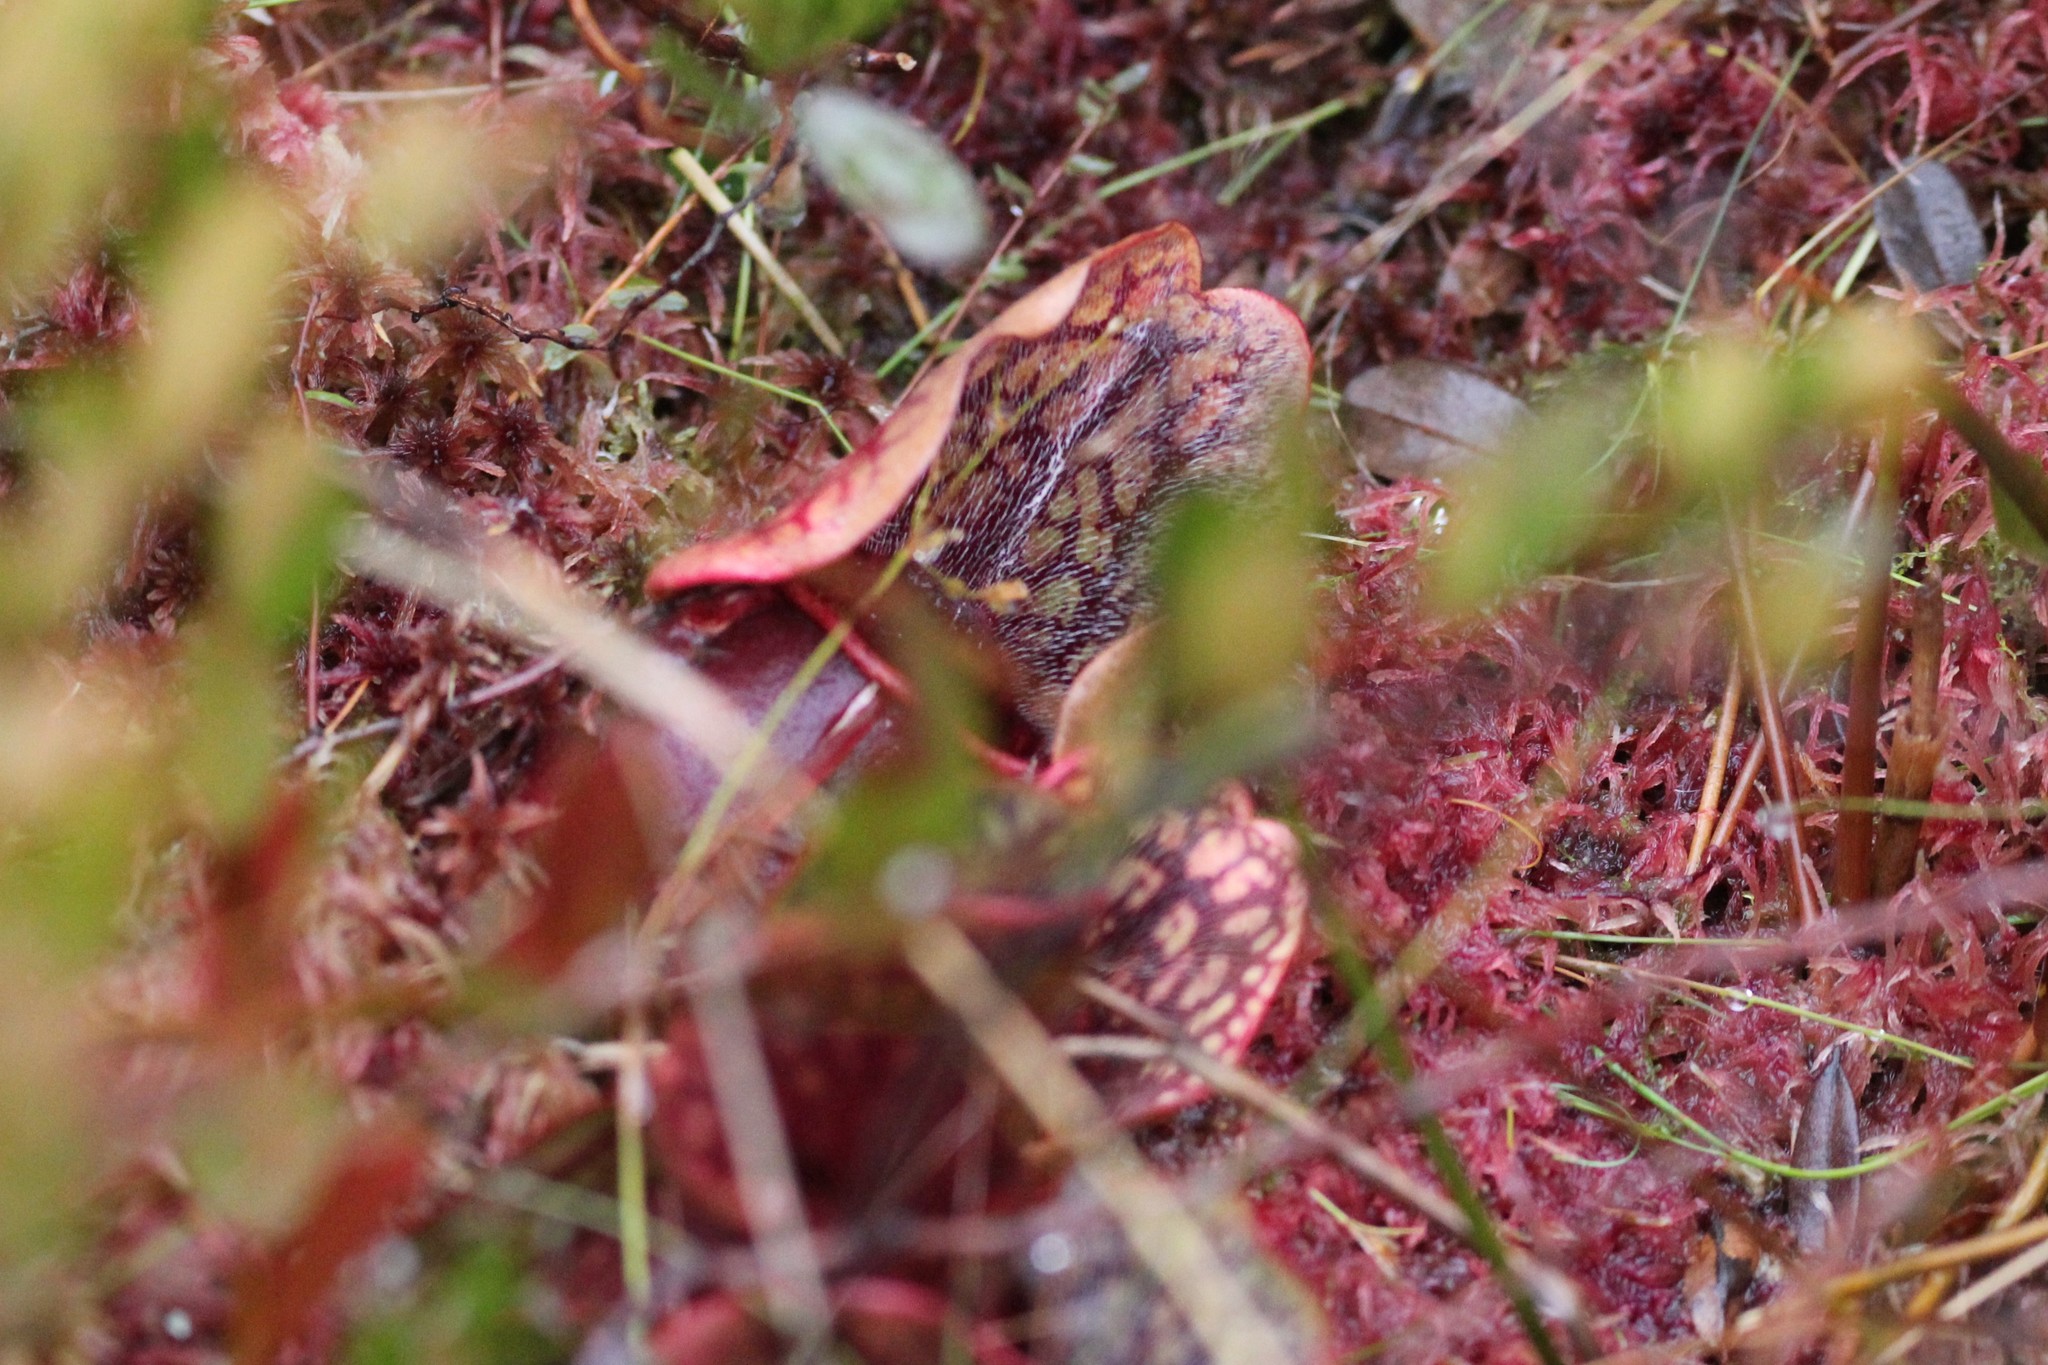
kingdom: Plantae
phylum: Tracheophyta
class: Magnoliopsida
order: Ericales
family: Sarraceniaceae
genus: Sarracenia
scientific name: Sarracenia purpurea
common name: Pitcherplant
